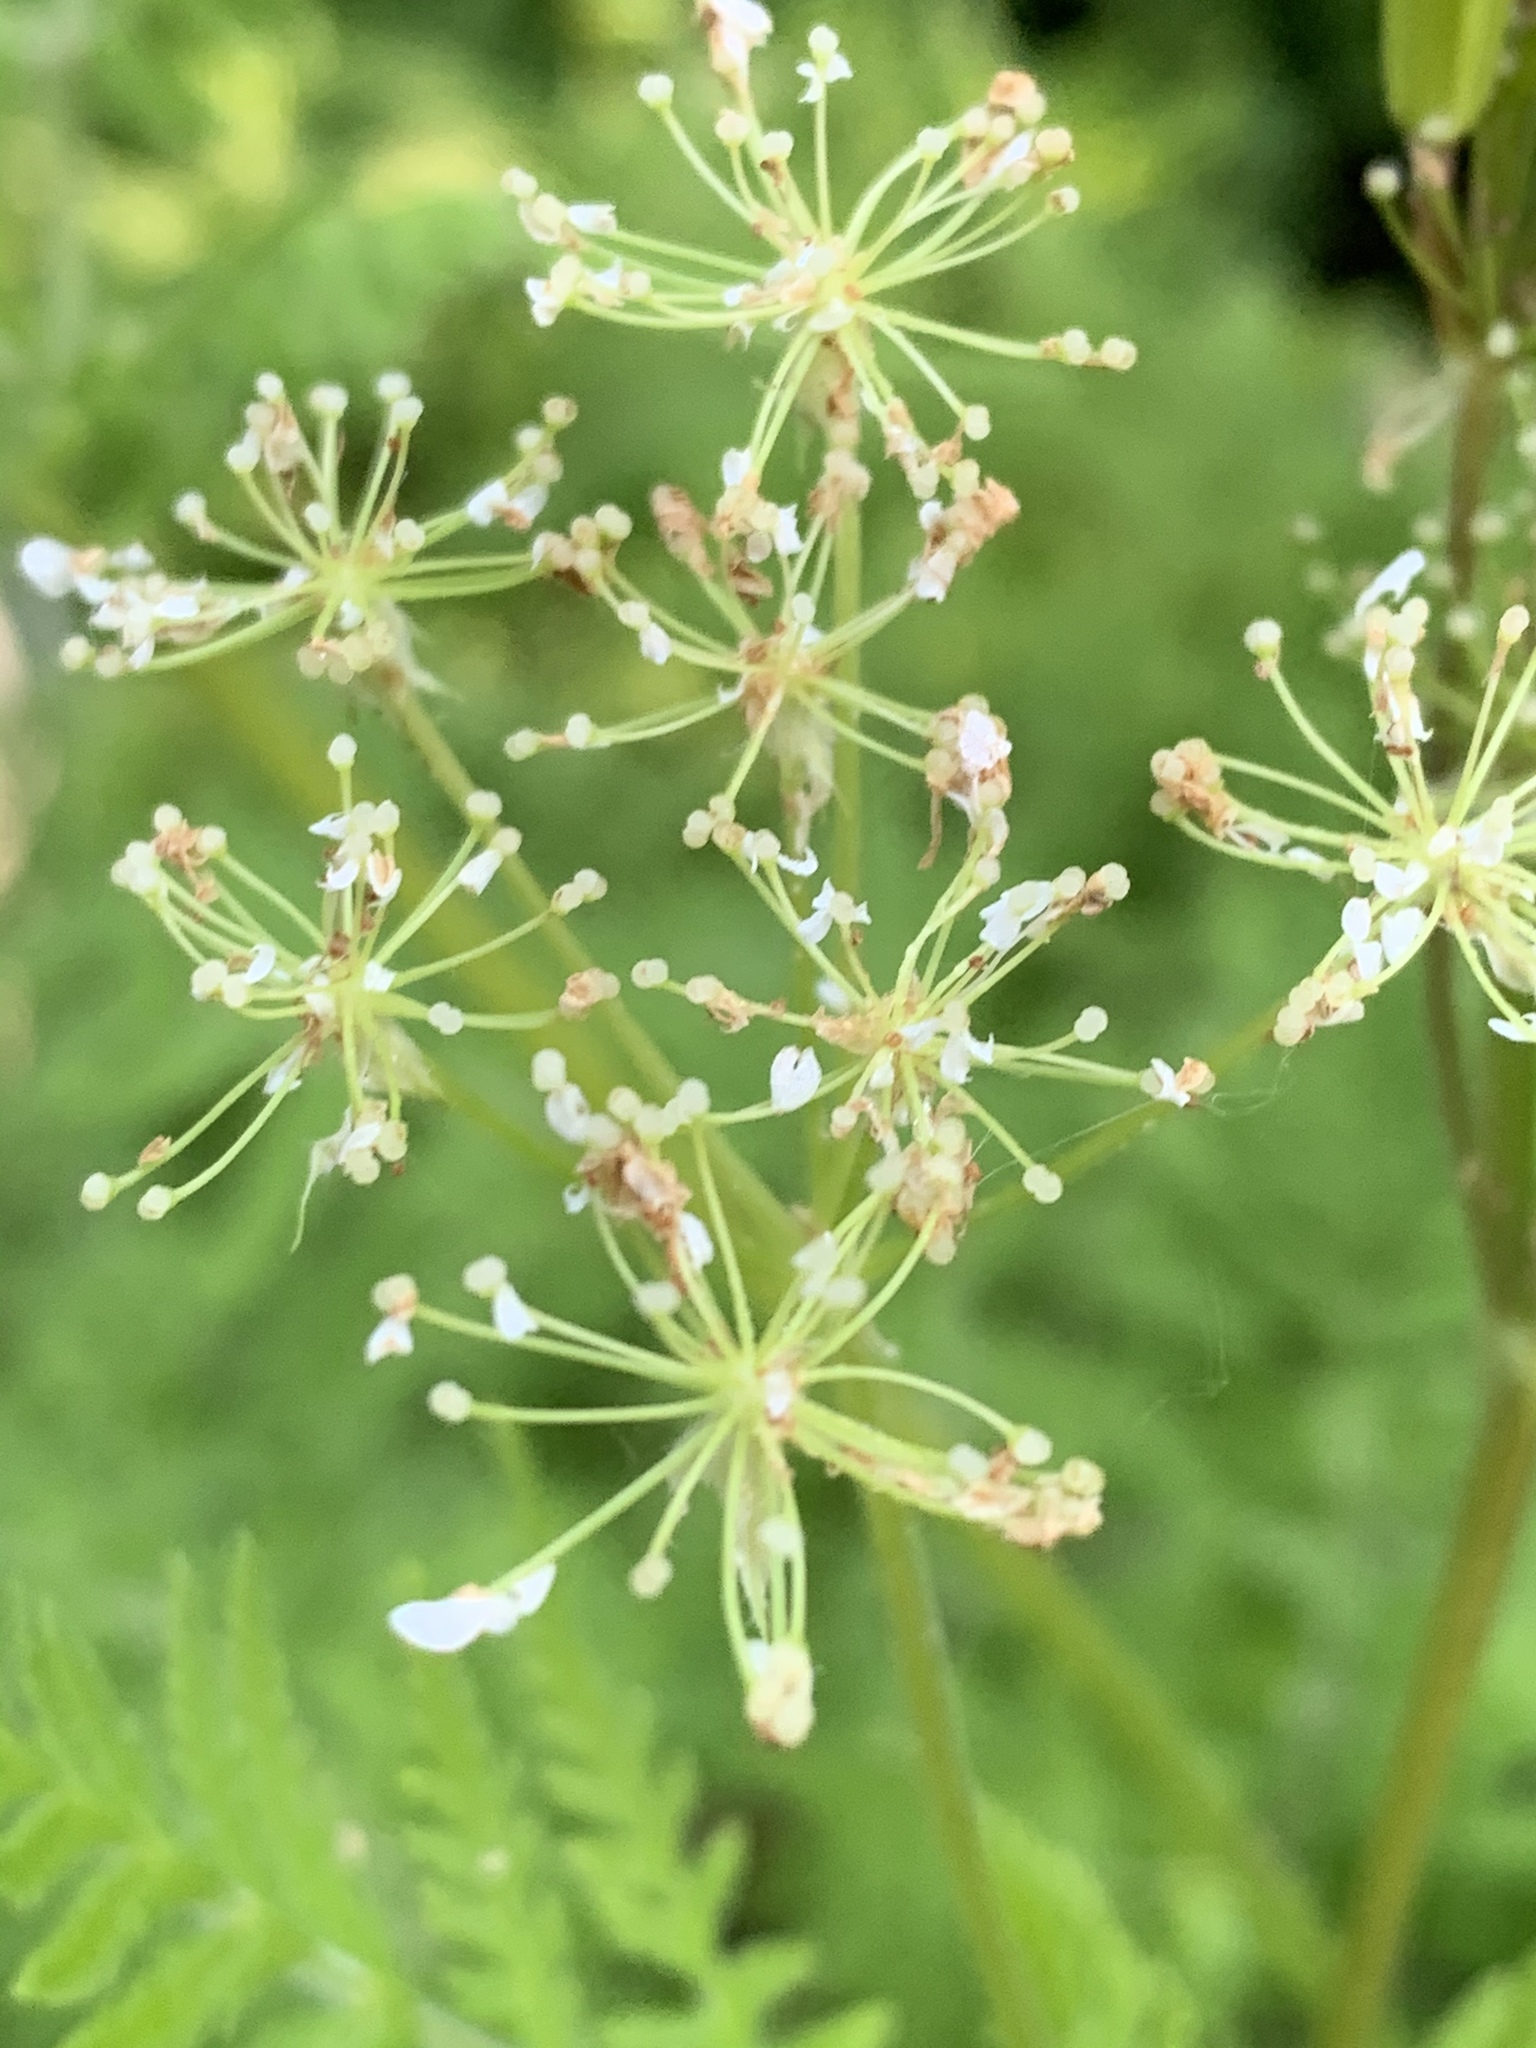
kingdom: Plantae
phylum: Tracheophyta
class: Magnoliopsida
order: Apiales
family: Apiaceae
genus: Myrrhis
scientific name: Myrrhis odorata
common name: Sweet cicely
